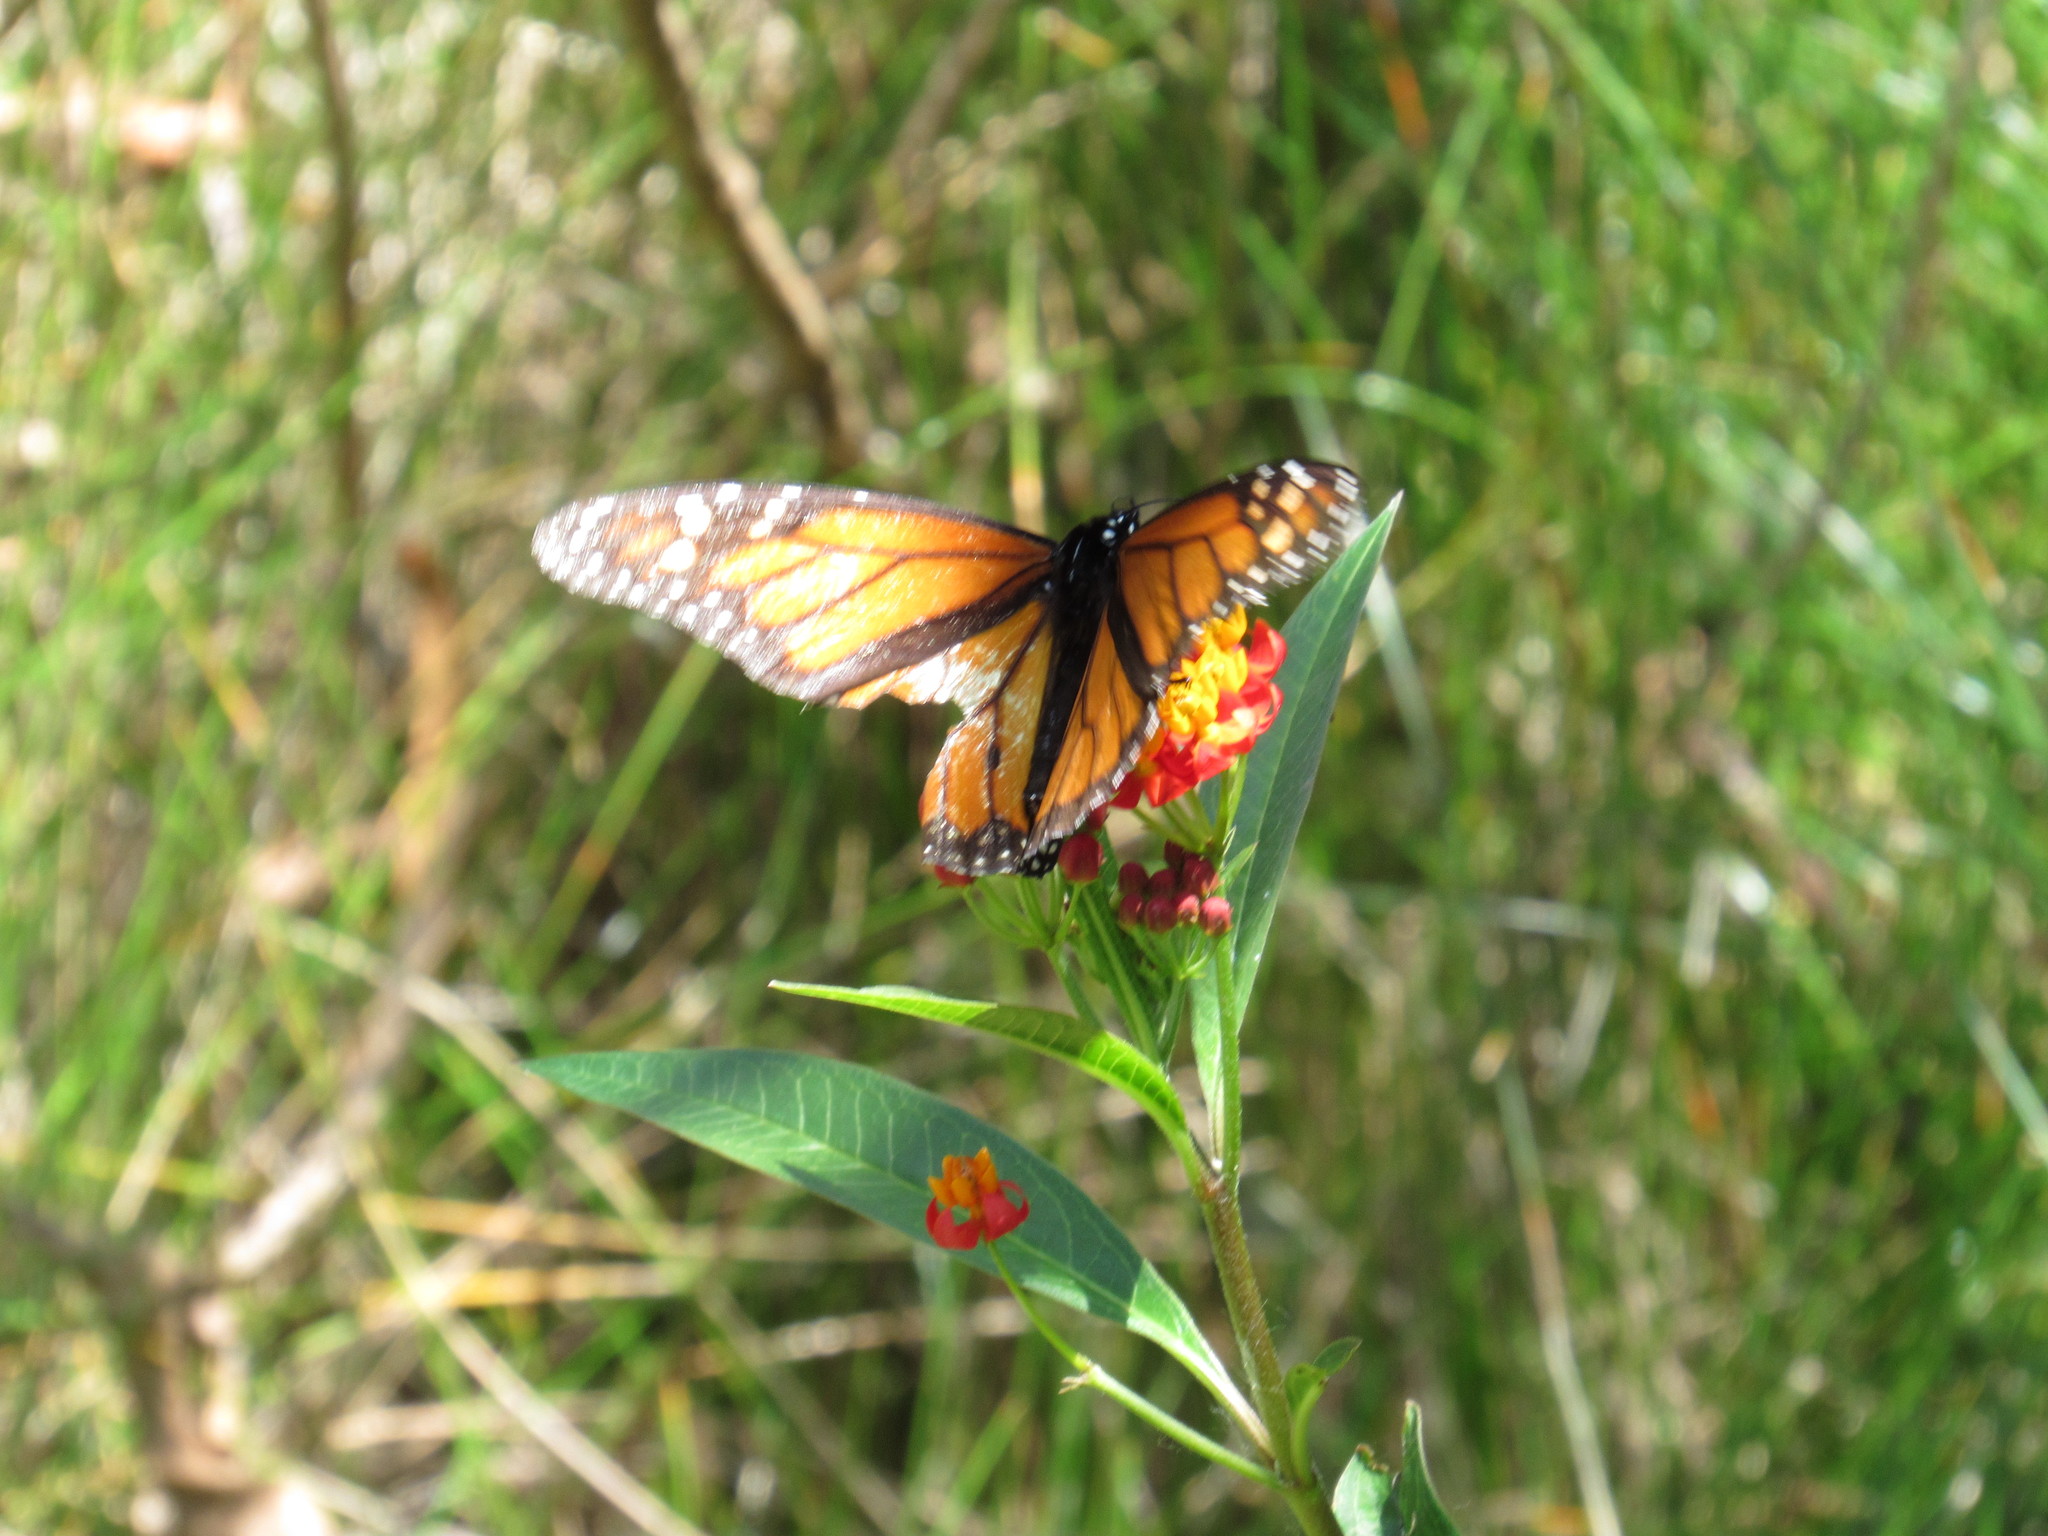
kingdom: Animalia
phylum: Arthropoda
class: Insecta
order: Lepidoptera
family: Nymphalidae
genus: Danaus
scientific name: Danaus plexippus
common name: Monarch
